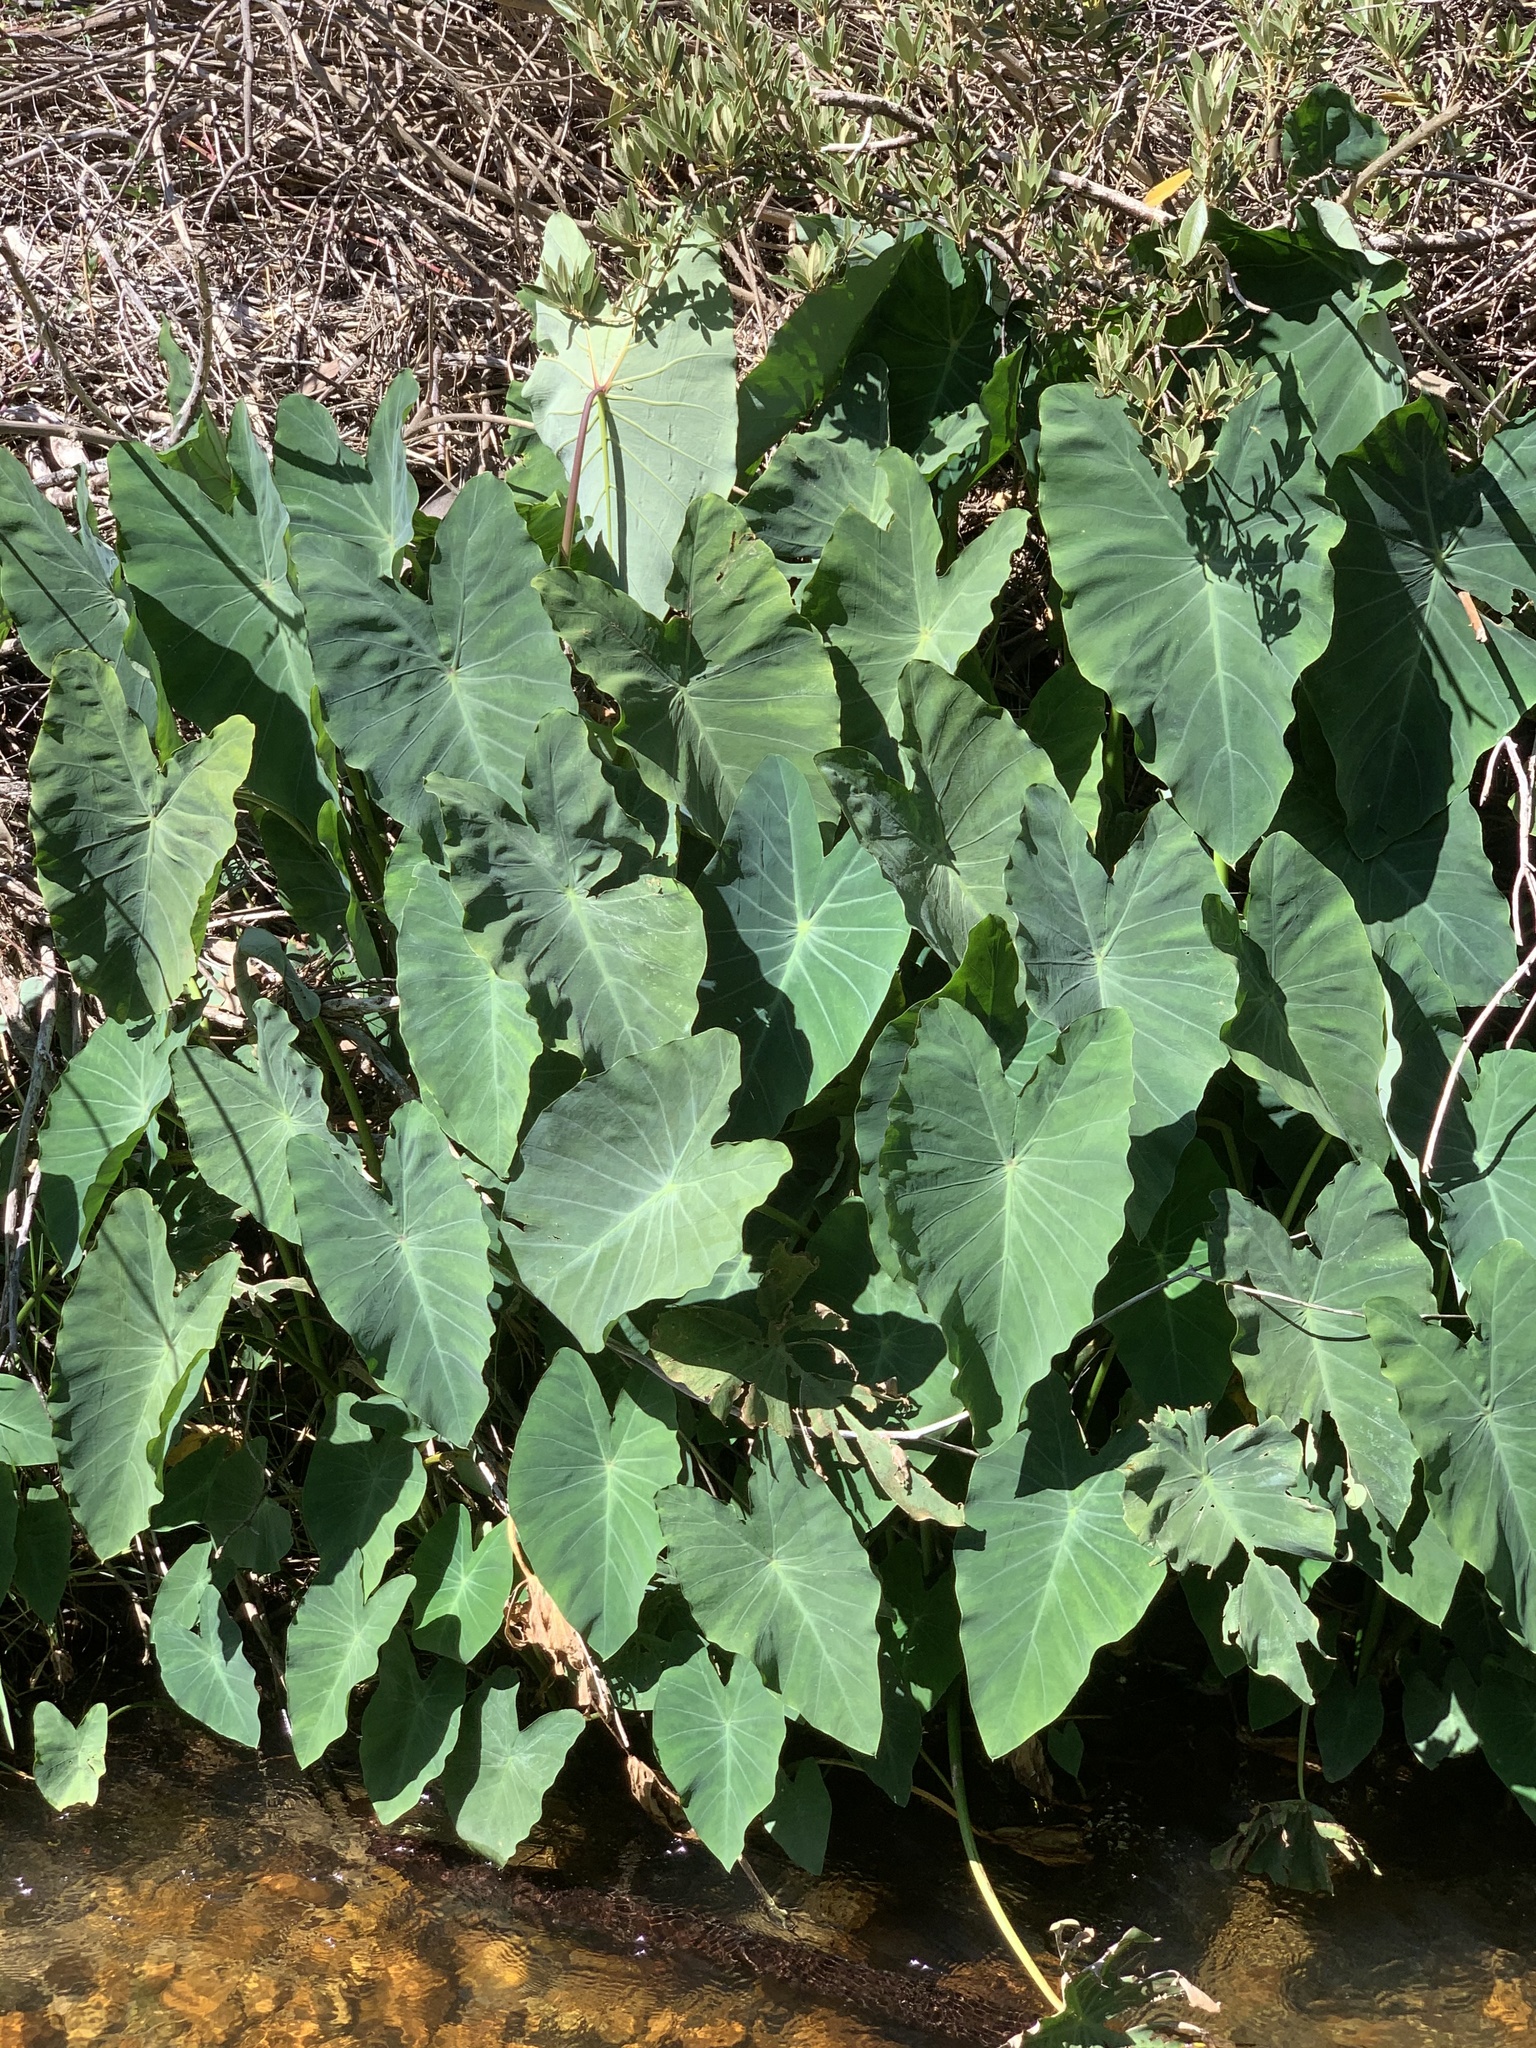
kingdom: Plantae
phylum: Tracheophyta
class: Liliopsida
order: Alismatales
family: Araceae
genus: Colocasia
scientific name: Colocasia esculenta
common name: Taro
